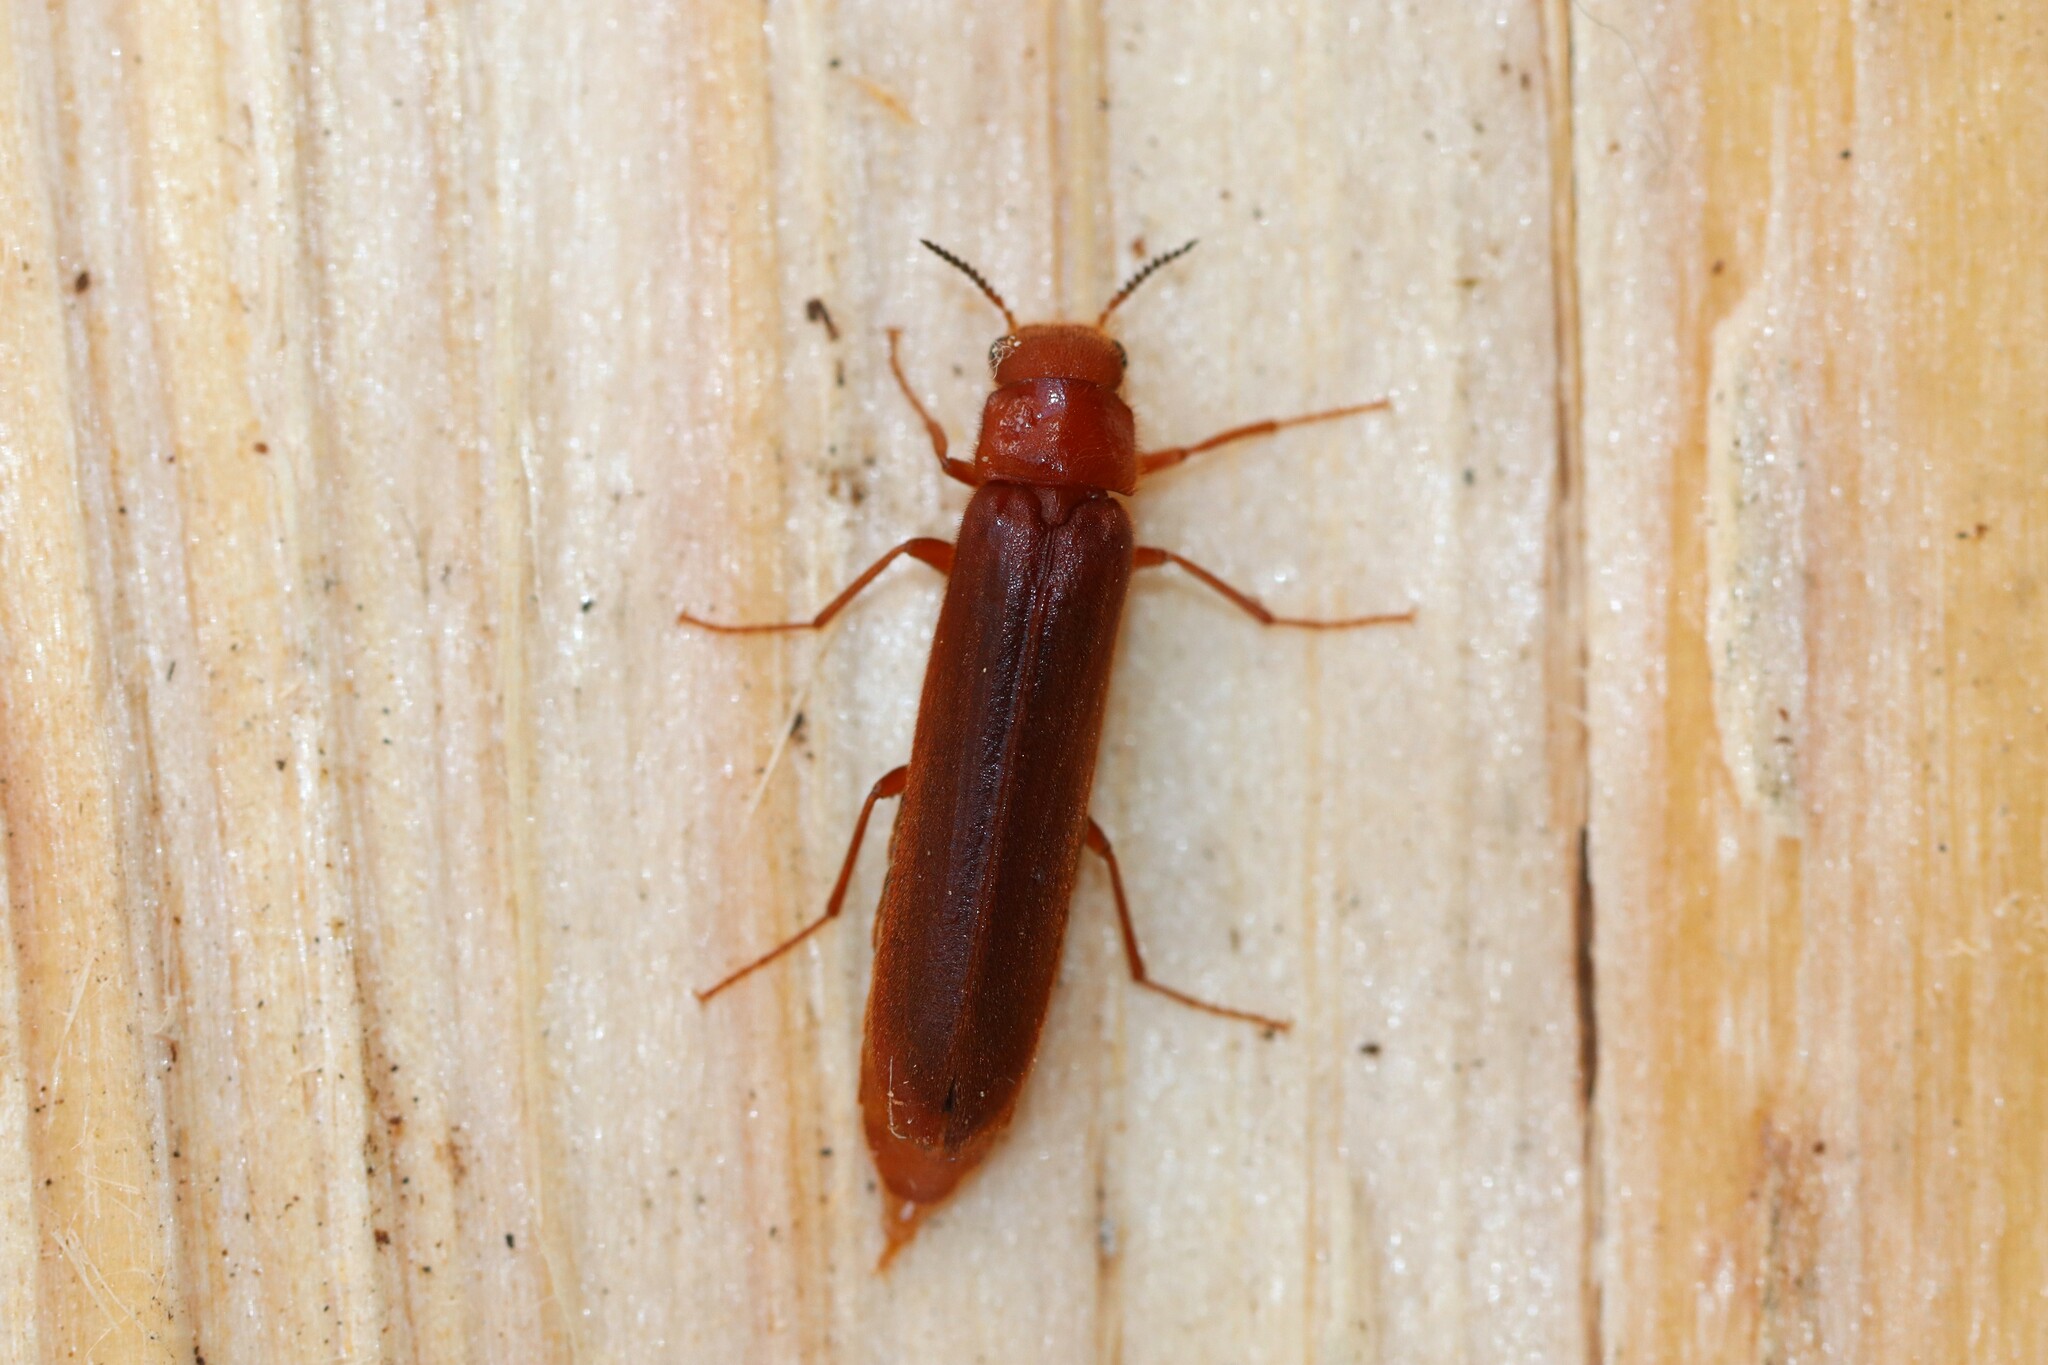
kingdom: Animalia
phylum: Arthropoda
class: Insecta
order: Coleoptera
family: Lymexylidae
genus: Hylecoetus
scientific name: Hylecoetus dermestoides
